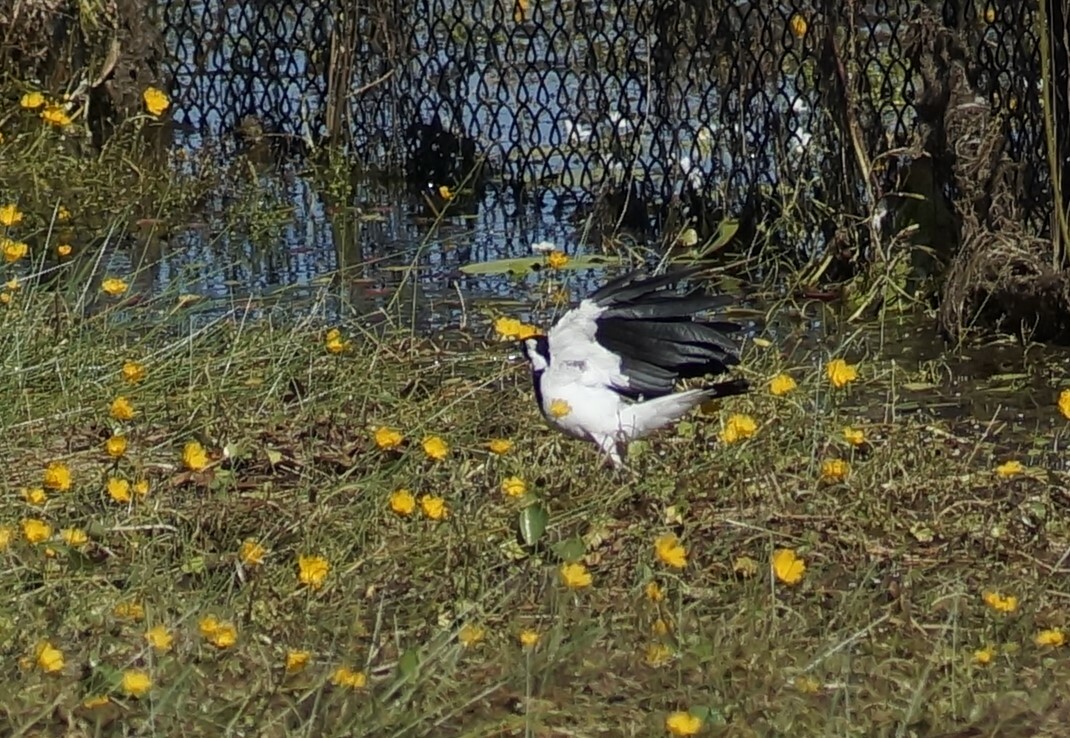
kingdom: Animalia
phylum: Chordata
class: Aves
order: Passeriformes
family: Monarchidae
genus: Grallina
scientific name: Grallina cyanoleuca
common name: Magpie-lark
